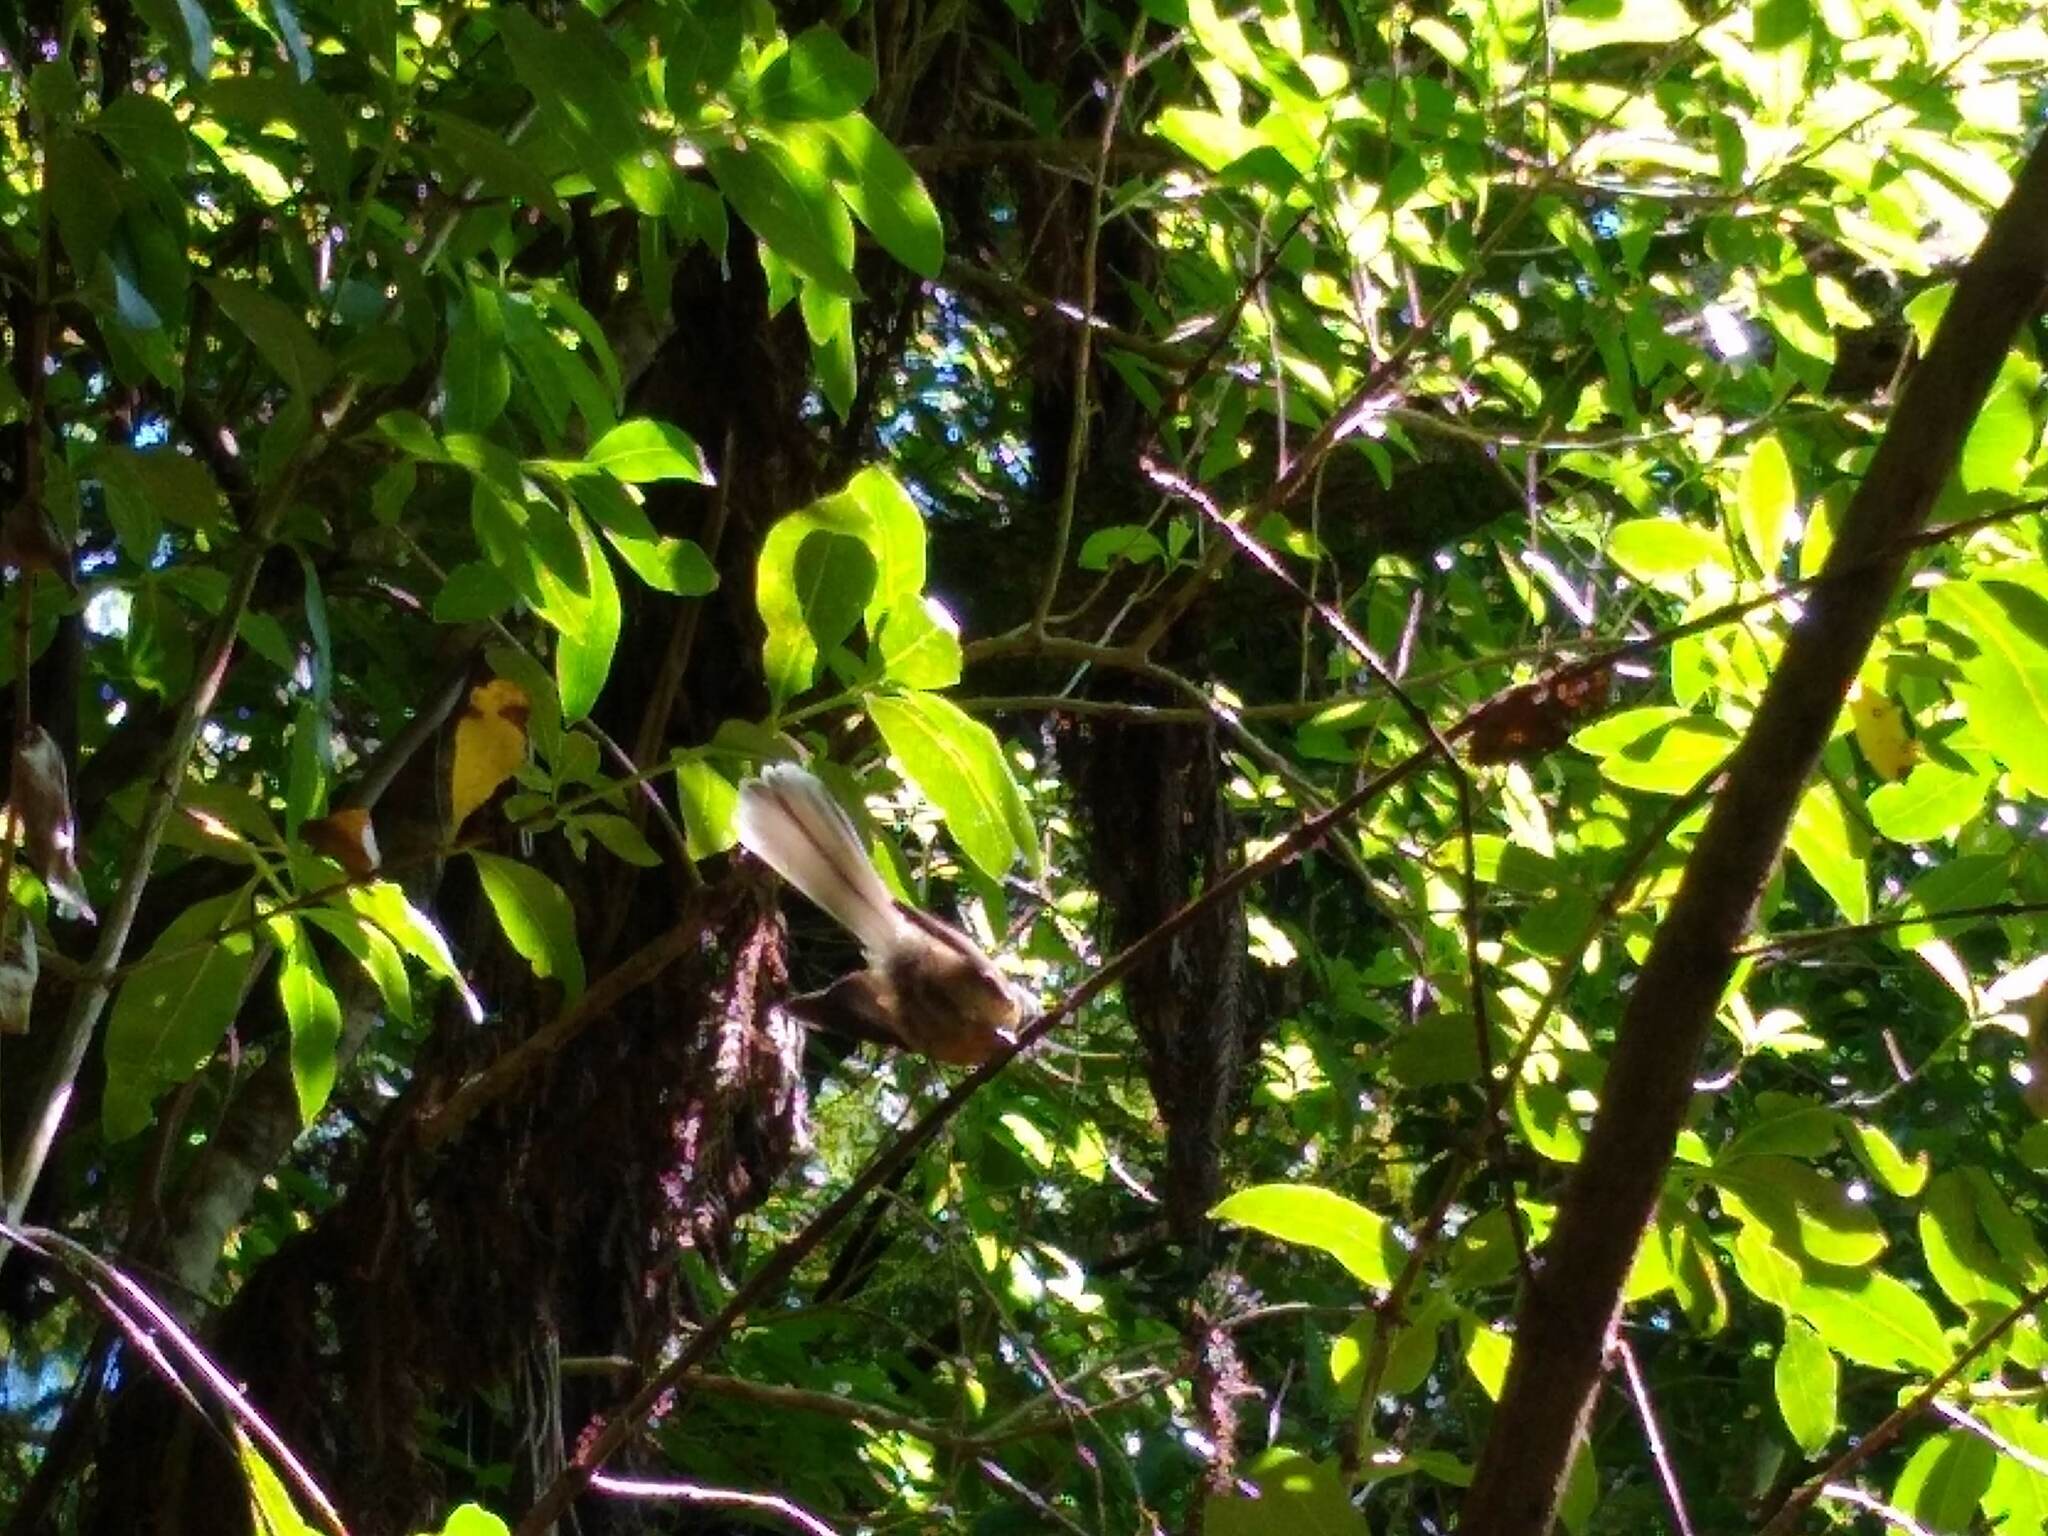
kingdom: Animalia
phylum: Chordata
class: Aves
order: Passeriformes
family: Rhipiduridae
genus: Rhipidura
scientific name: Rhipidura fuliginosa
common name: New zealand fantail
